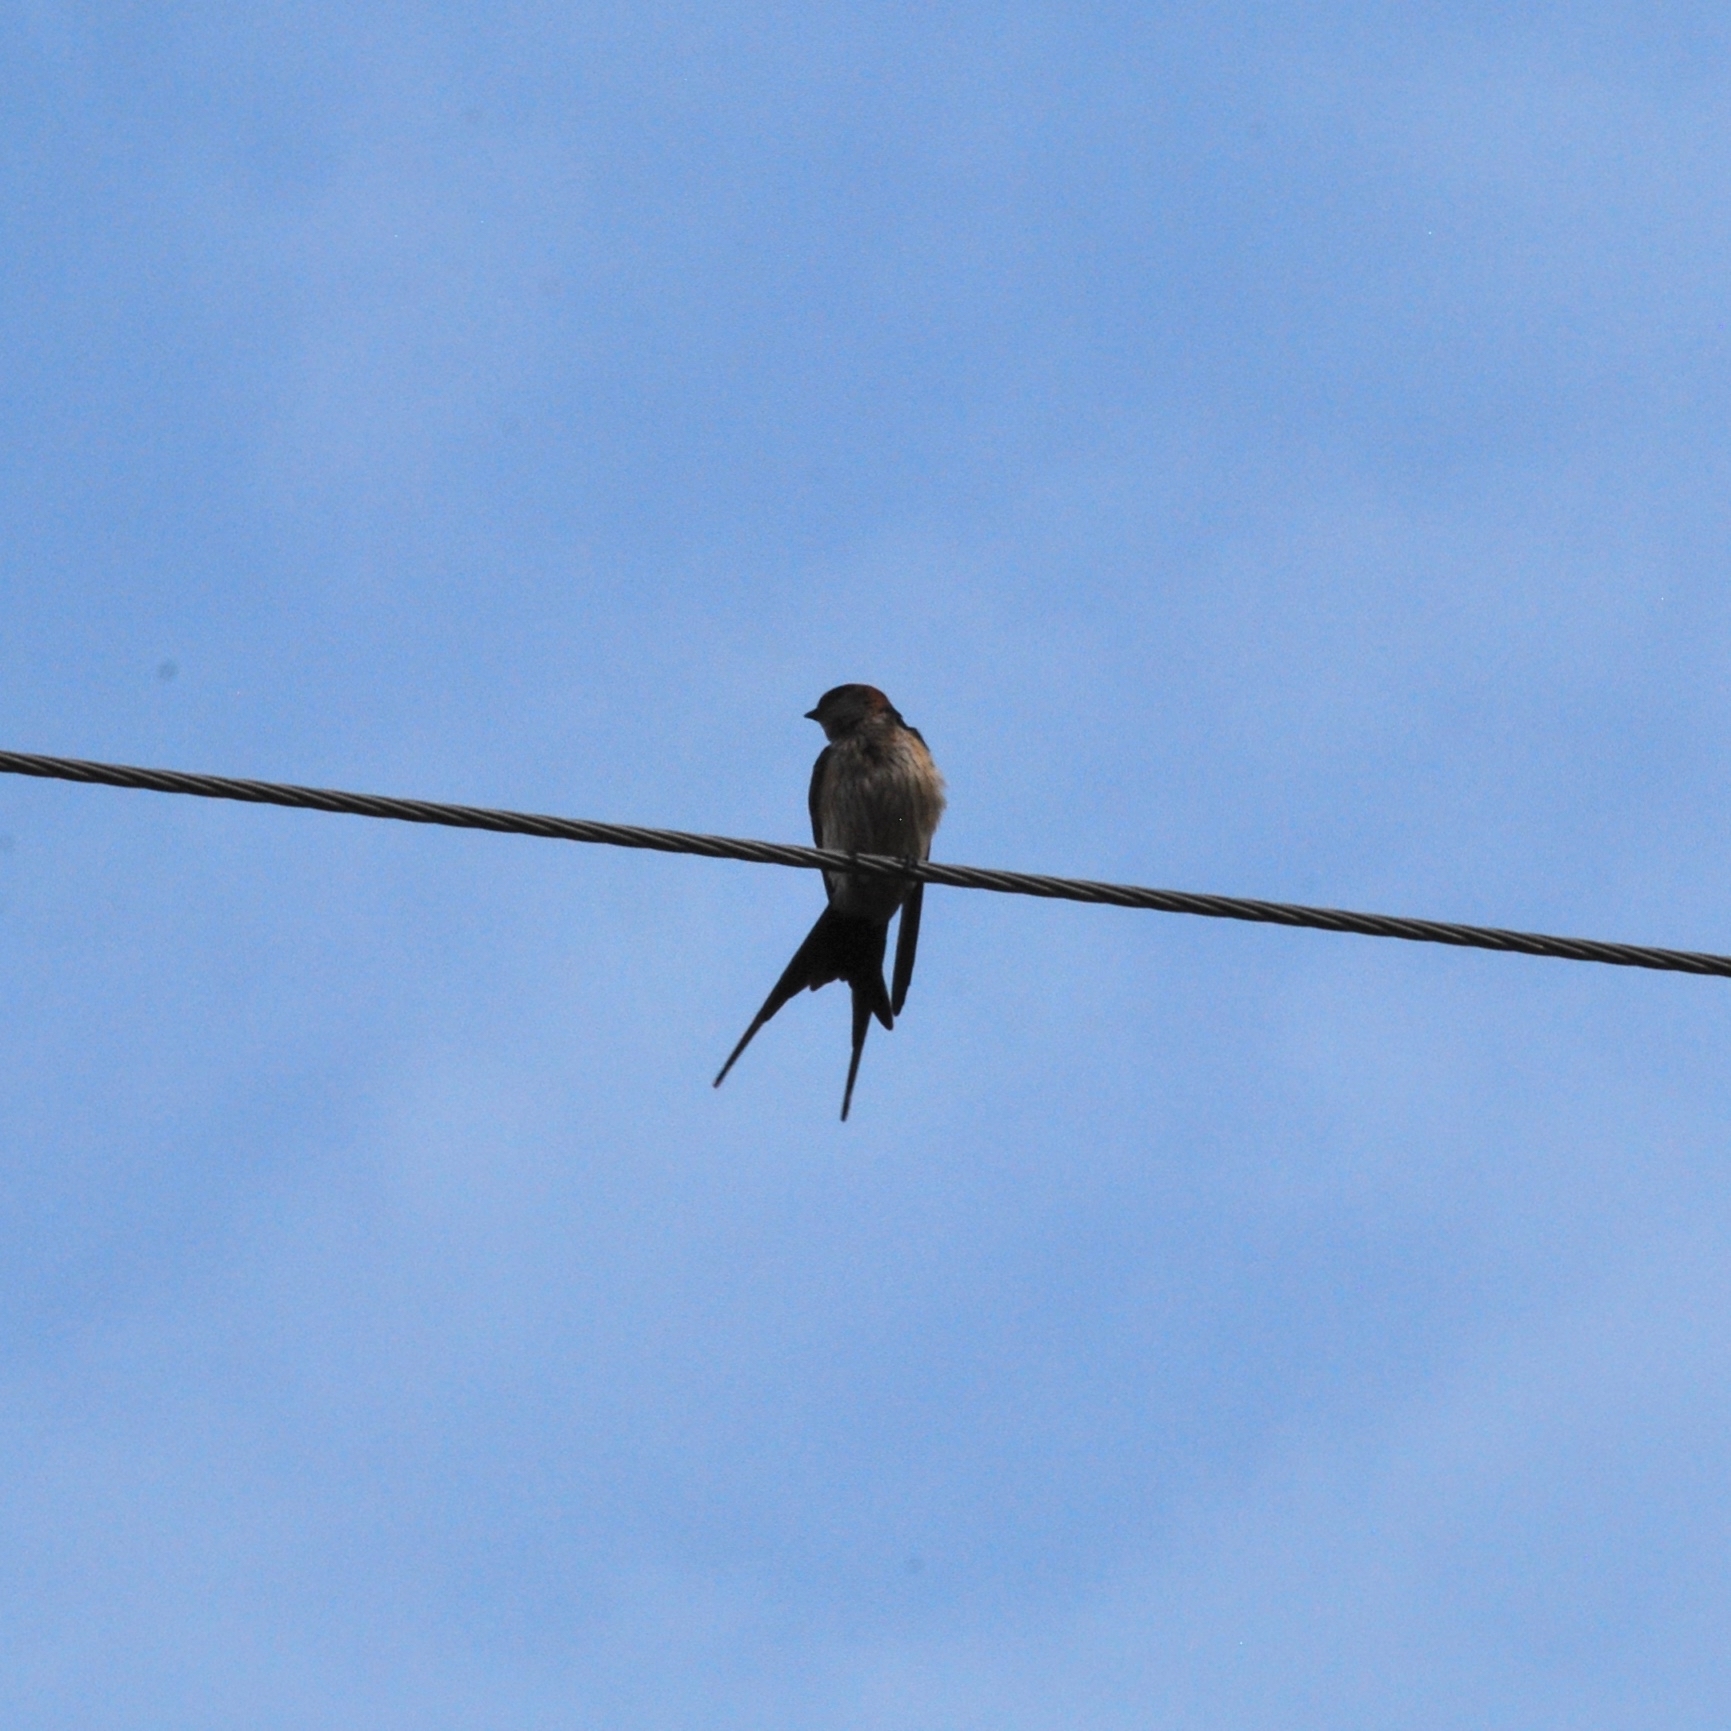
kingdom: Animalia
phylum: Chordata
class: Aves
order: Passeriformes
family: Hirundinidae
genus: Cecropis
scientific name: Cecropis daurica
